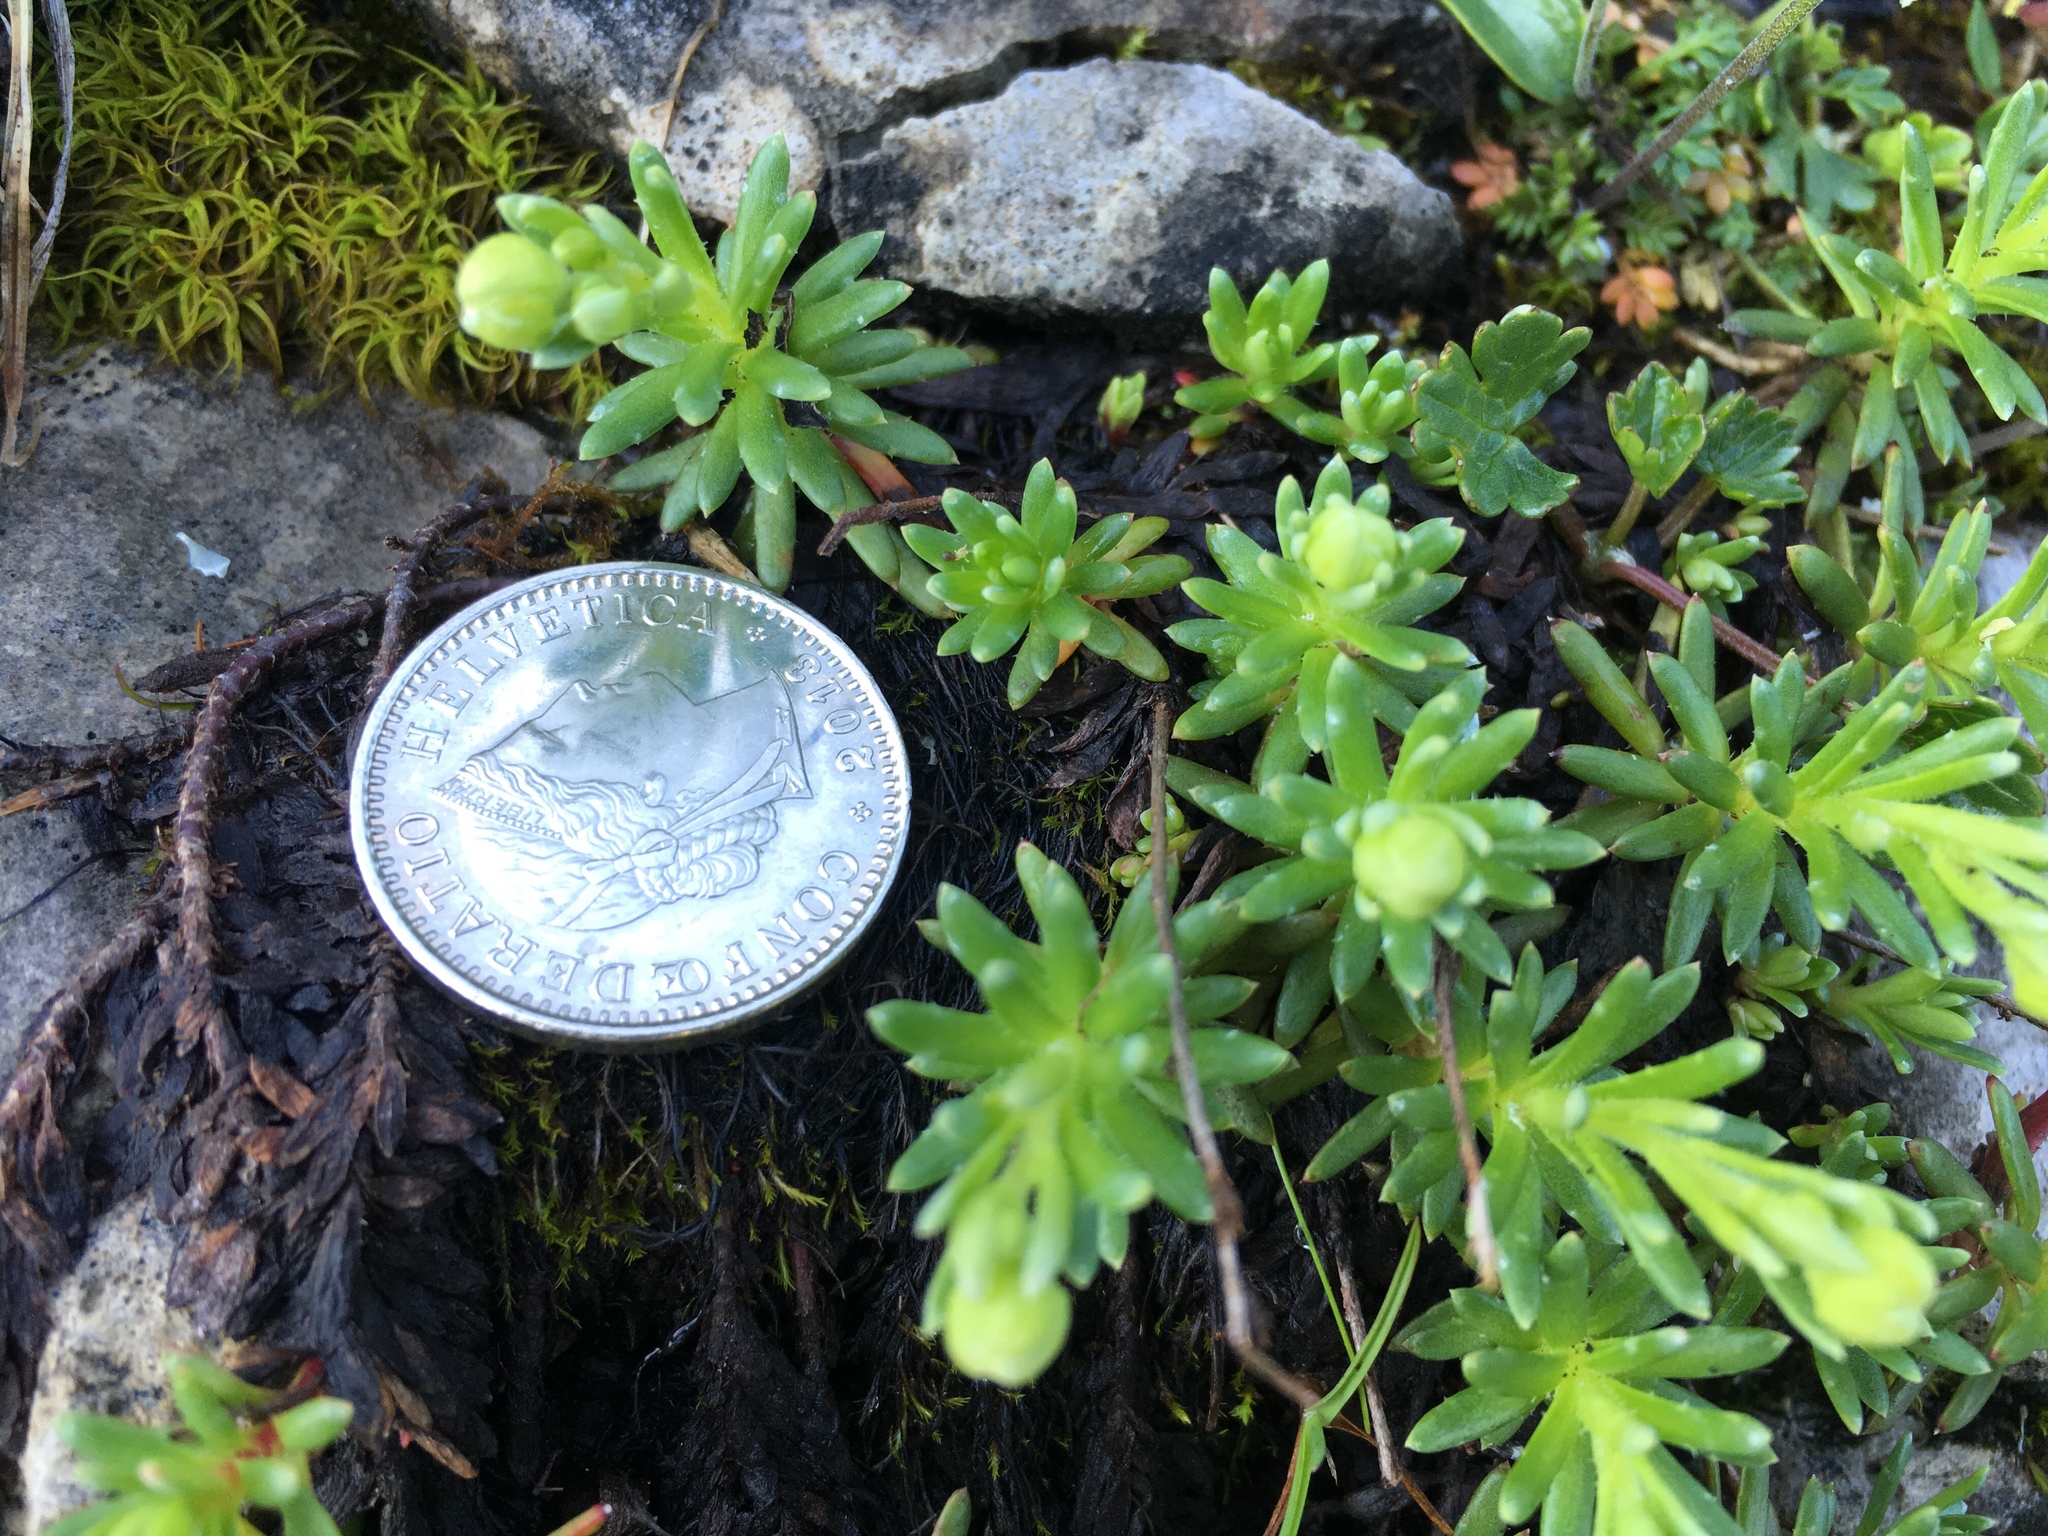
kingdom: Plantae
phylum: Tracheophyta
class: Magnoliopsida
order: Saxifragales
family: Saxifragaceae
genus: Saxifraga
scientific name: Saxifraga aizoides
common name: Yellow mountain saxifrage
